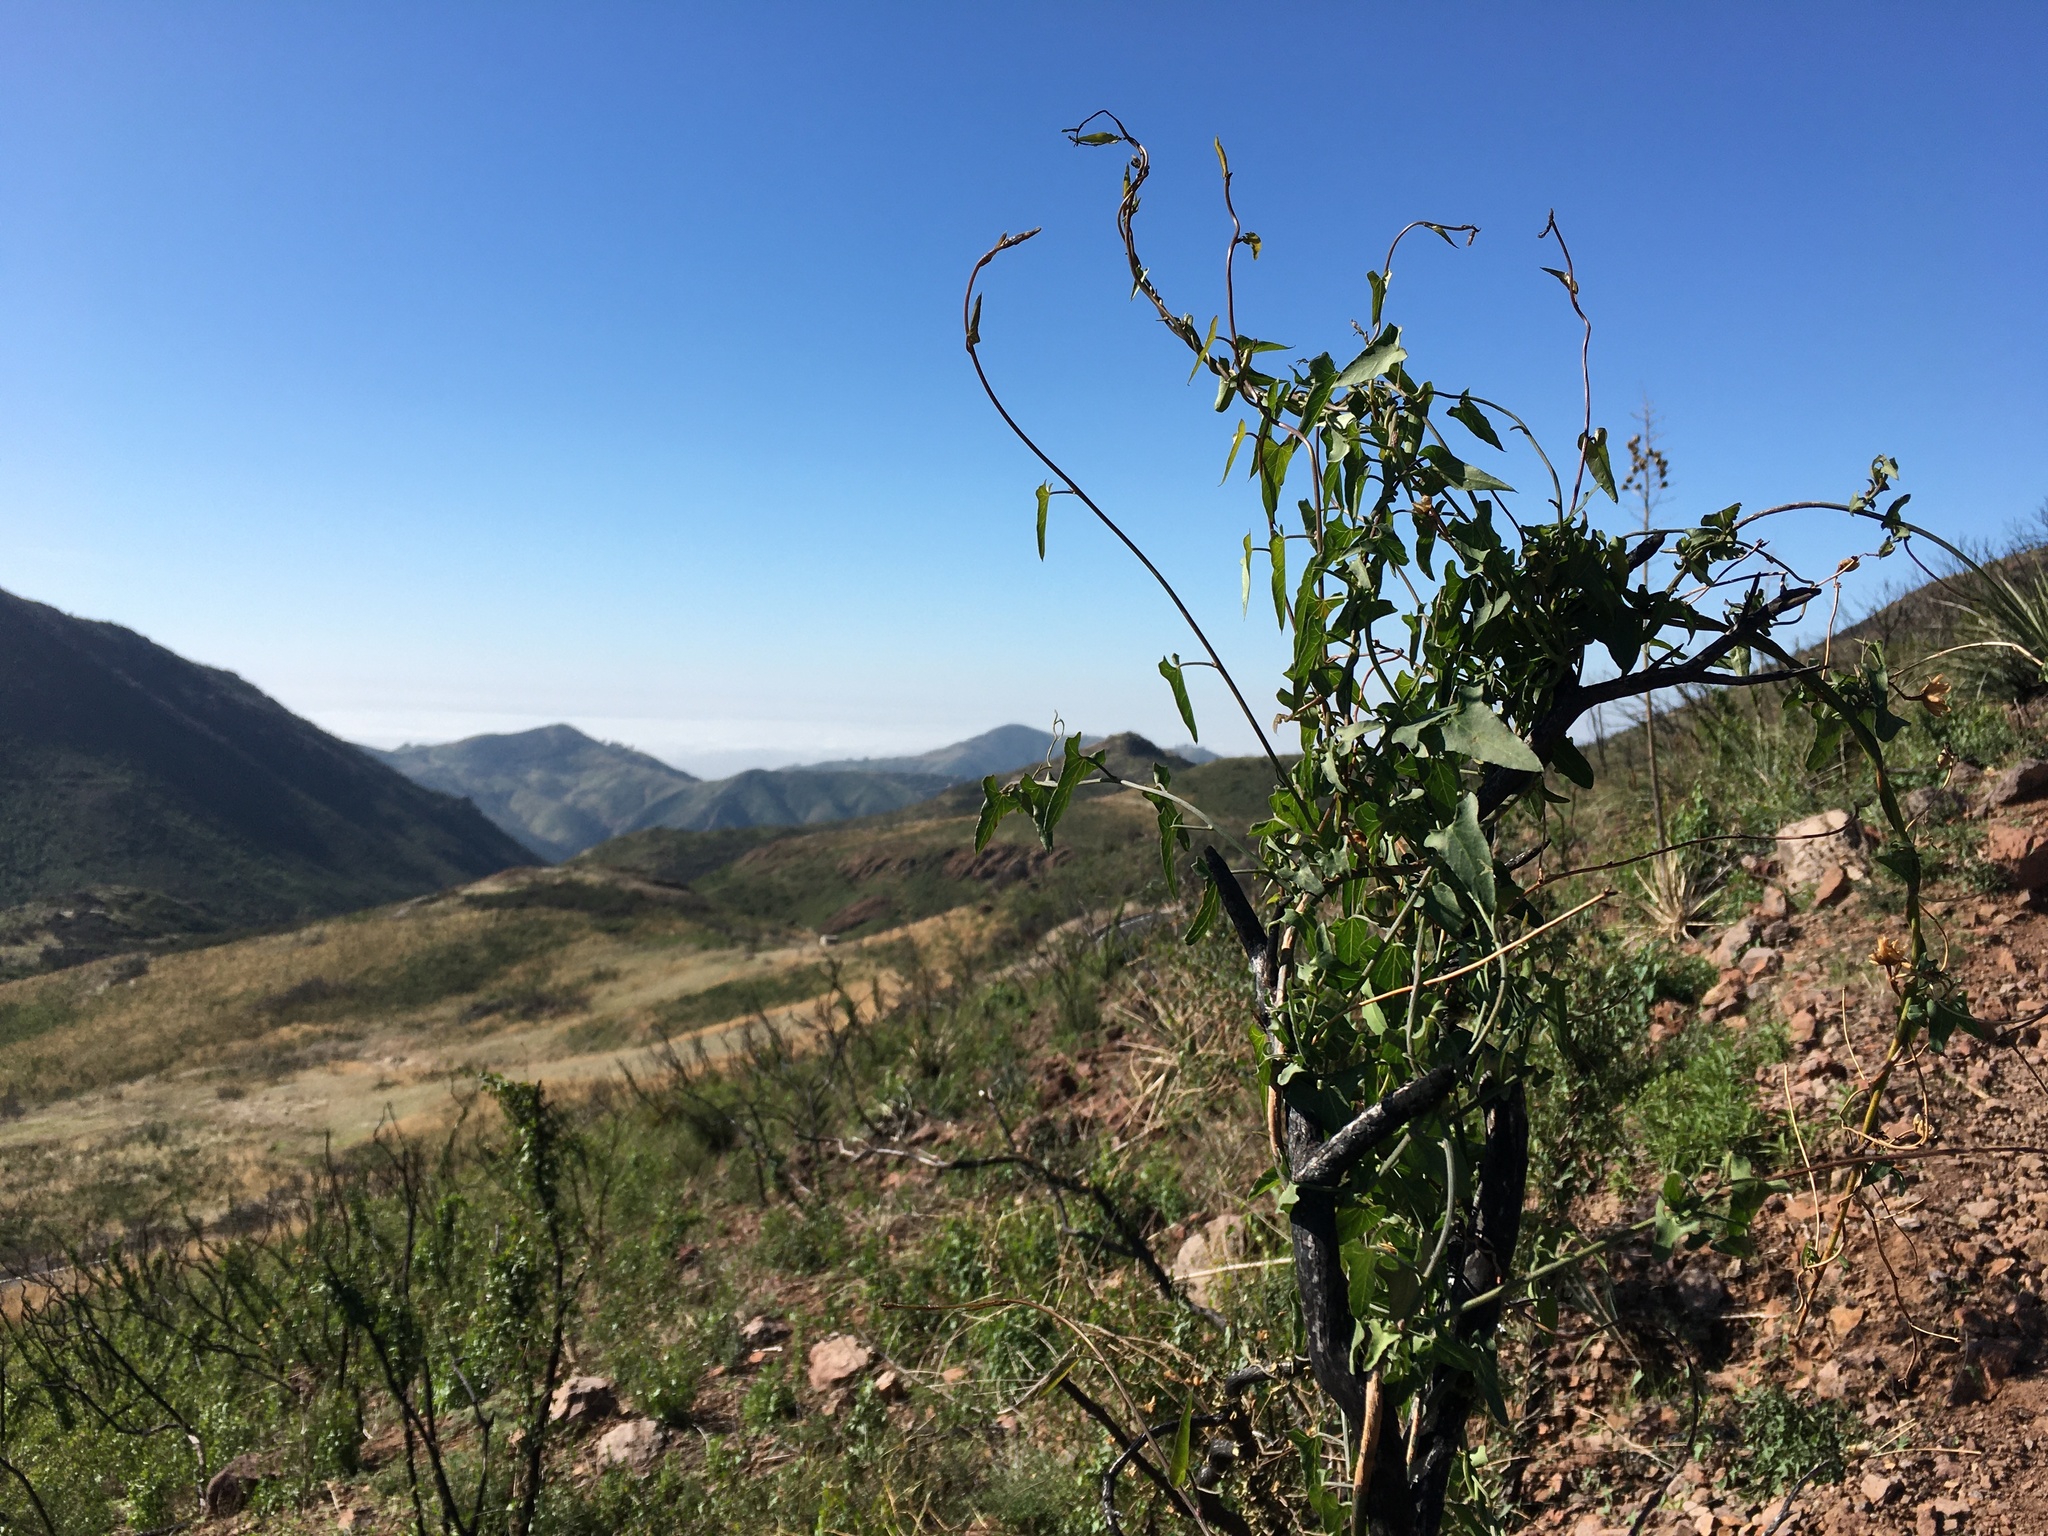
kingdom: Plantae
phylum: Tracheophyta
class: Magnoliopsida
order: Solanales
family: Convolvulaceae
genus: Calystegia
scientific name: Calystegia macrostegia
